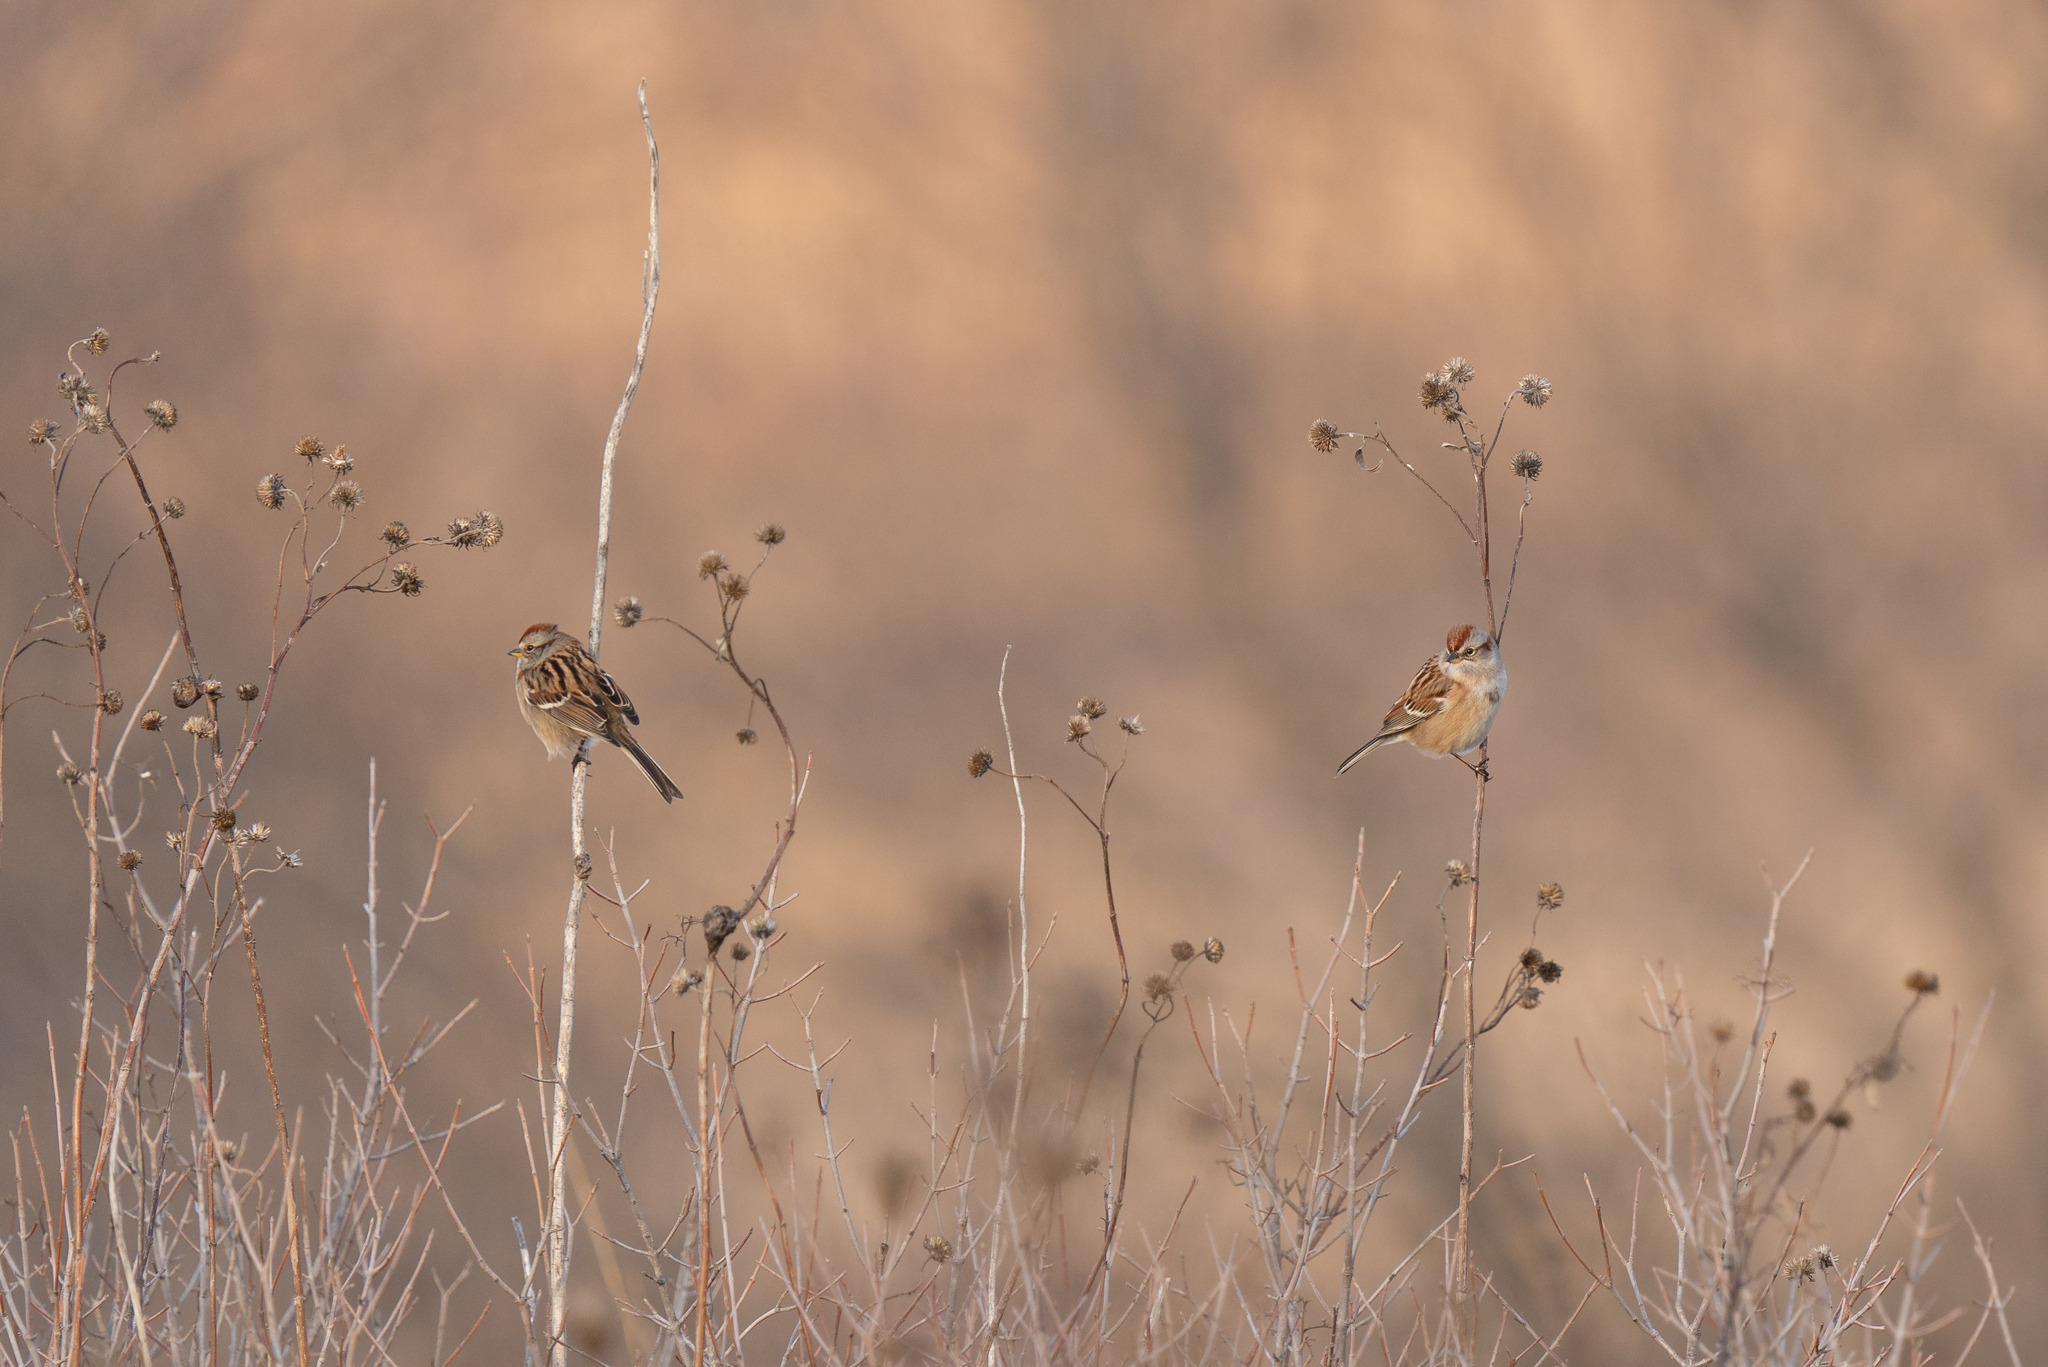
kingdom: Animalia
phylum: Chordata
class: Aves
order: Passeriformes
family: Passerellidae
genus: Spizelloides
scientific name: Spizelloides arborea
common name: American tree sparrow
